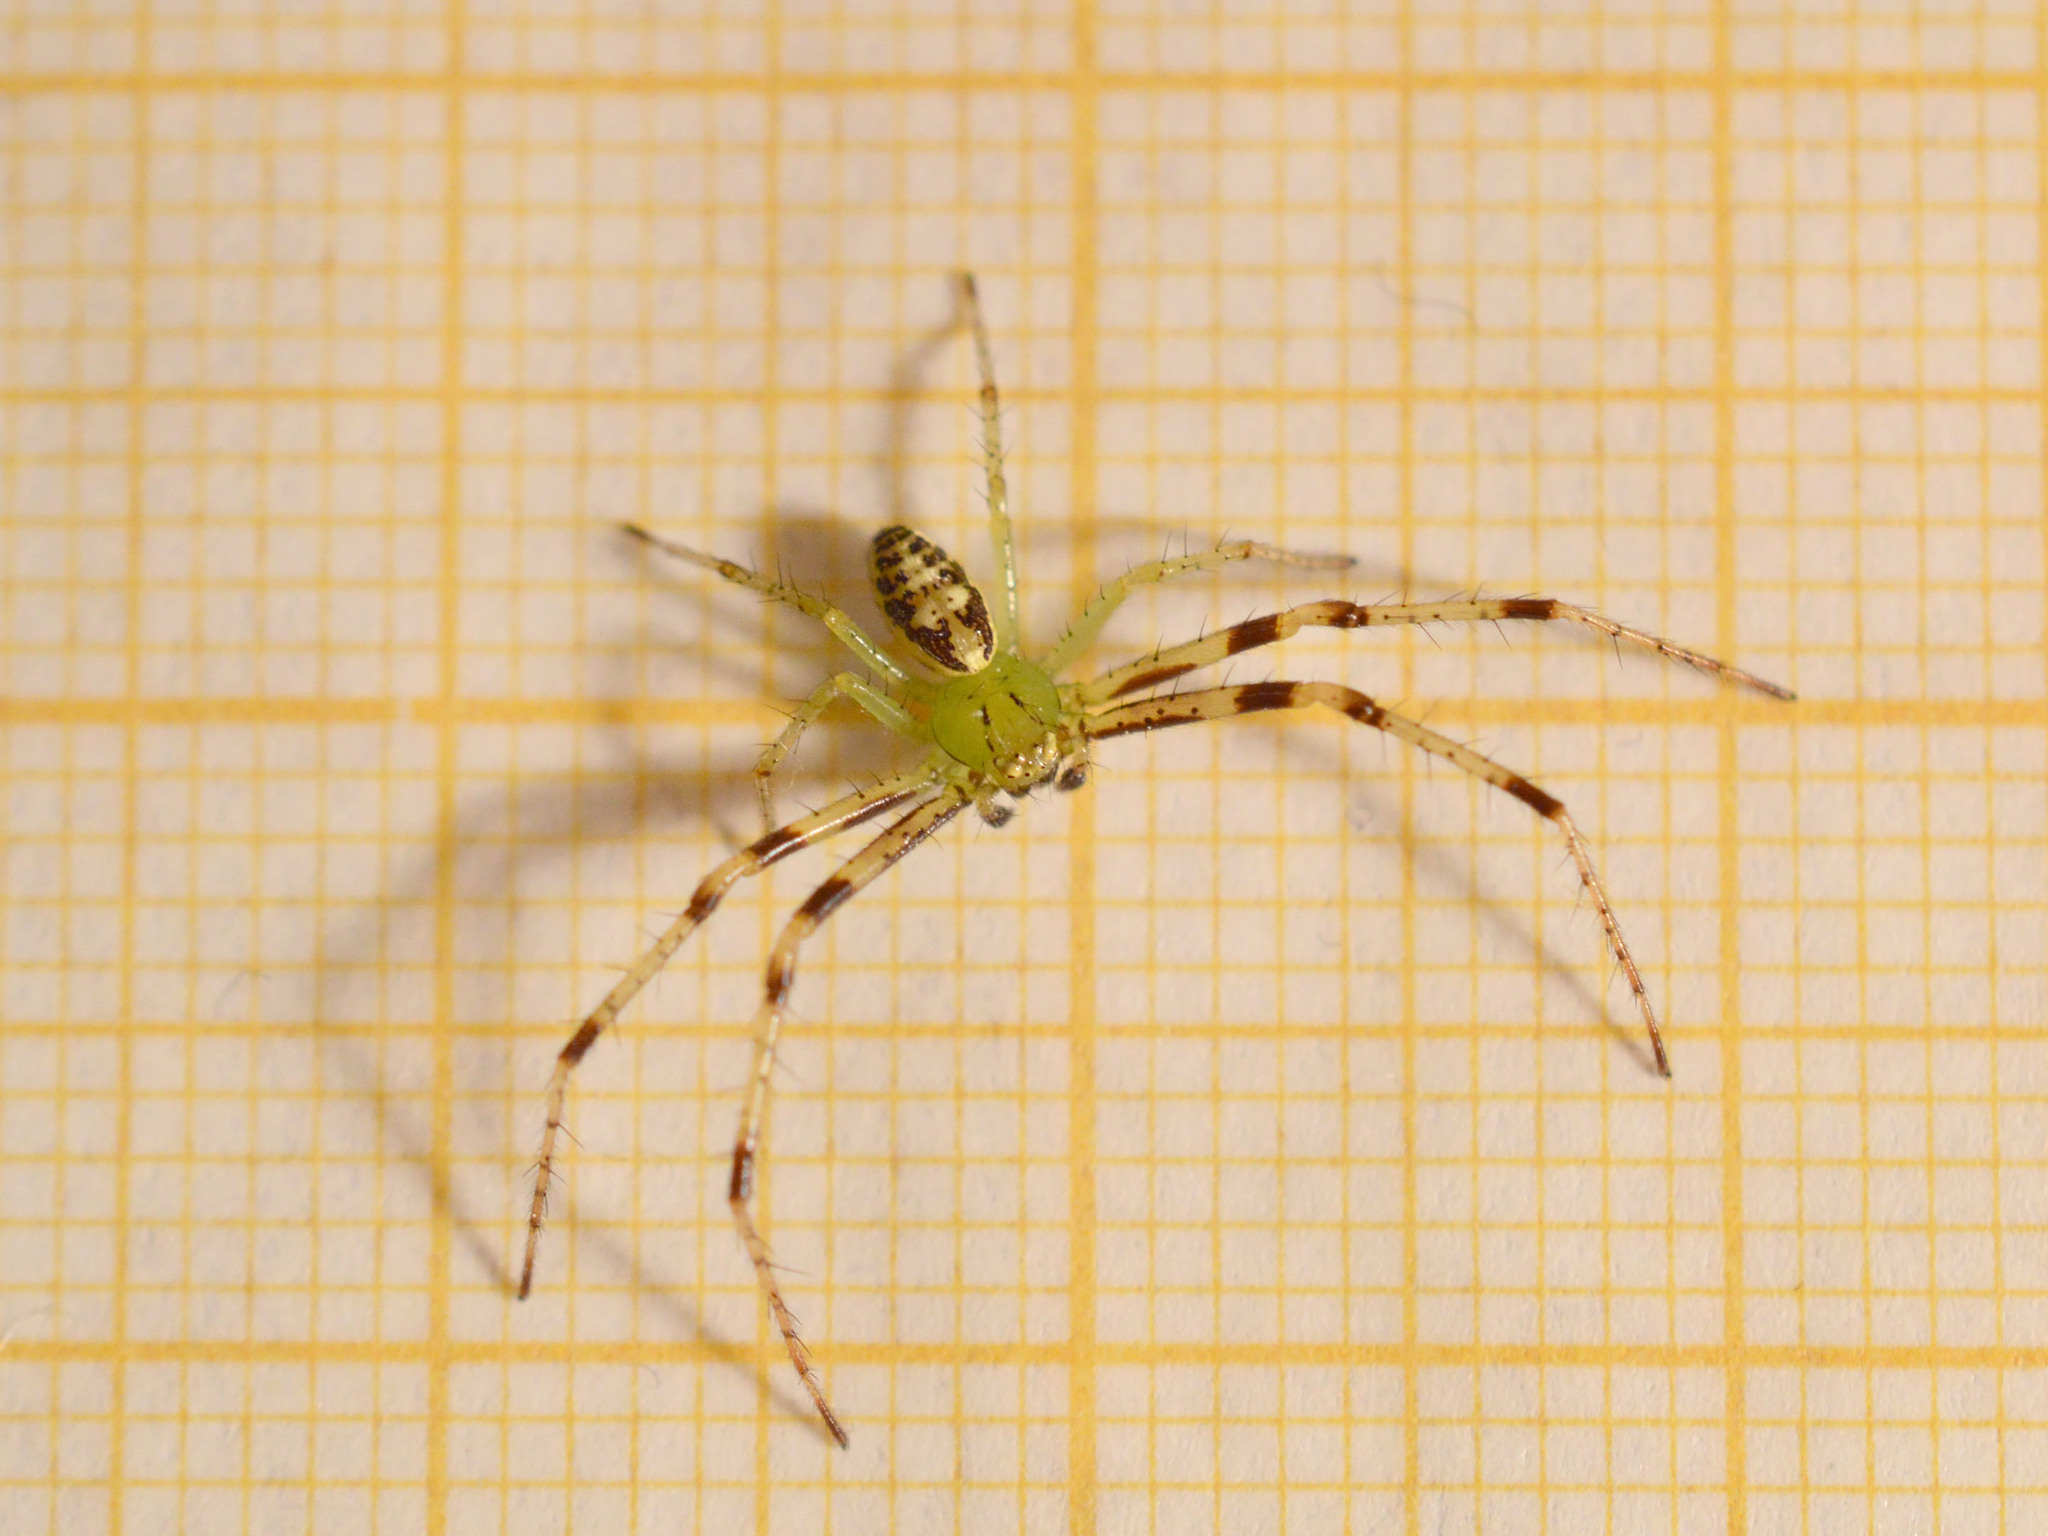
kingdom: Animalia
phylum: Arthropoda
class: Arachnida
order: Araneae
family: Thomisidae
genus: Diaea
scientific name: Diaea livens
